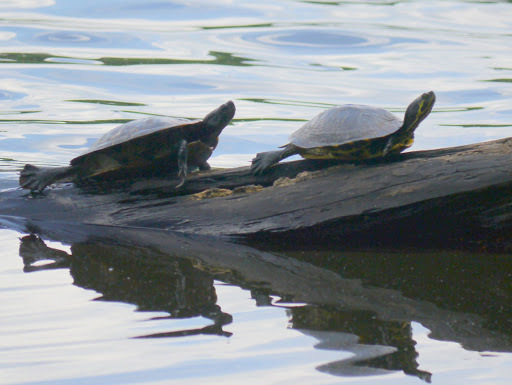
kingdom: Animalia
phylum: Chordata
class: Testudines
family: Emydidae
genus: Trachemys
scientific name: Trachemys scripta
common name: Slider
